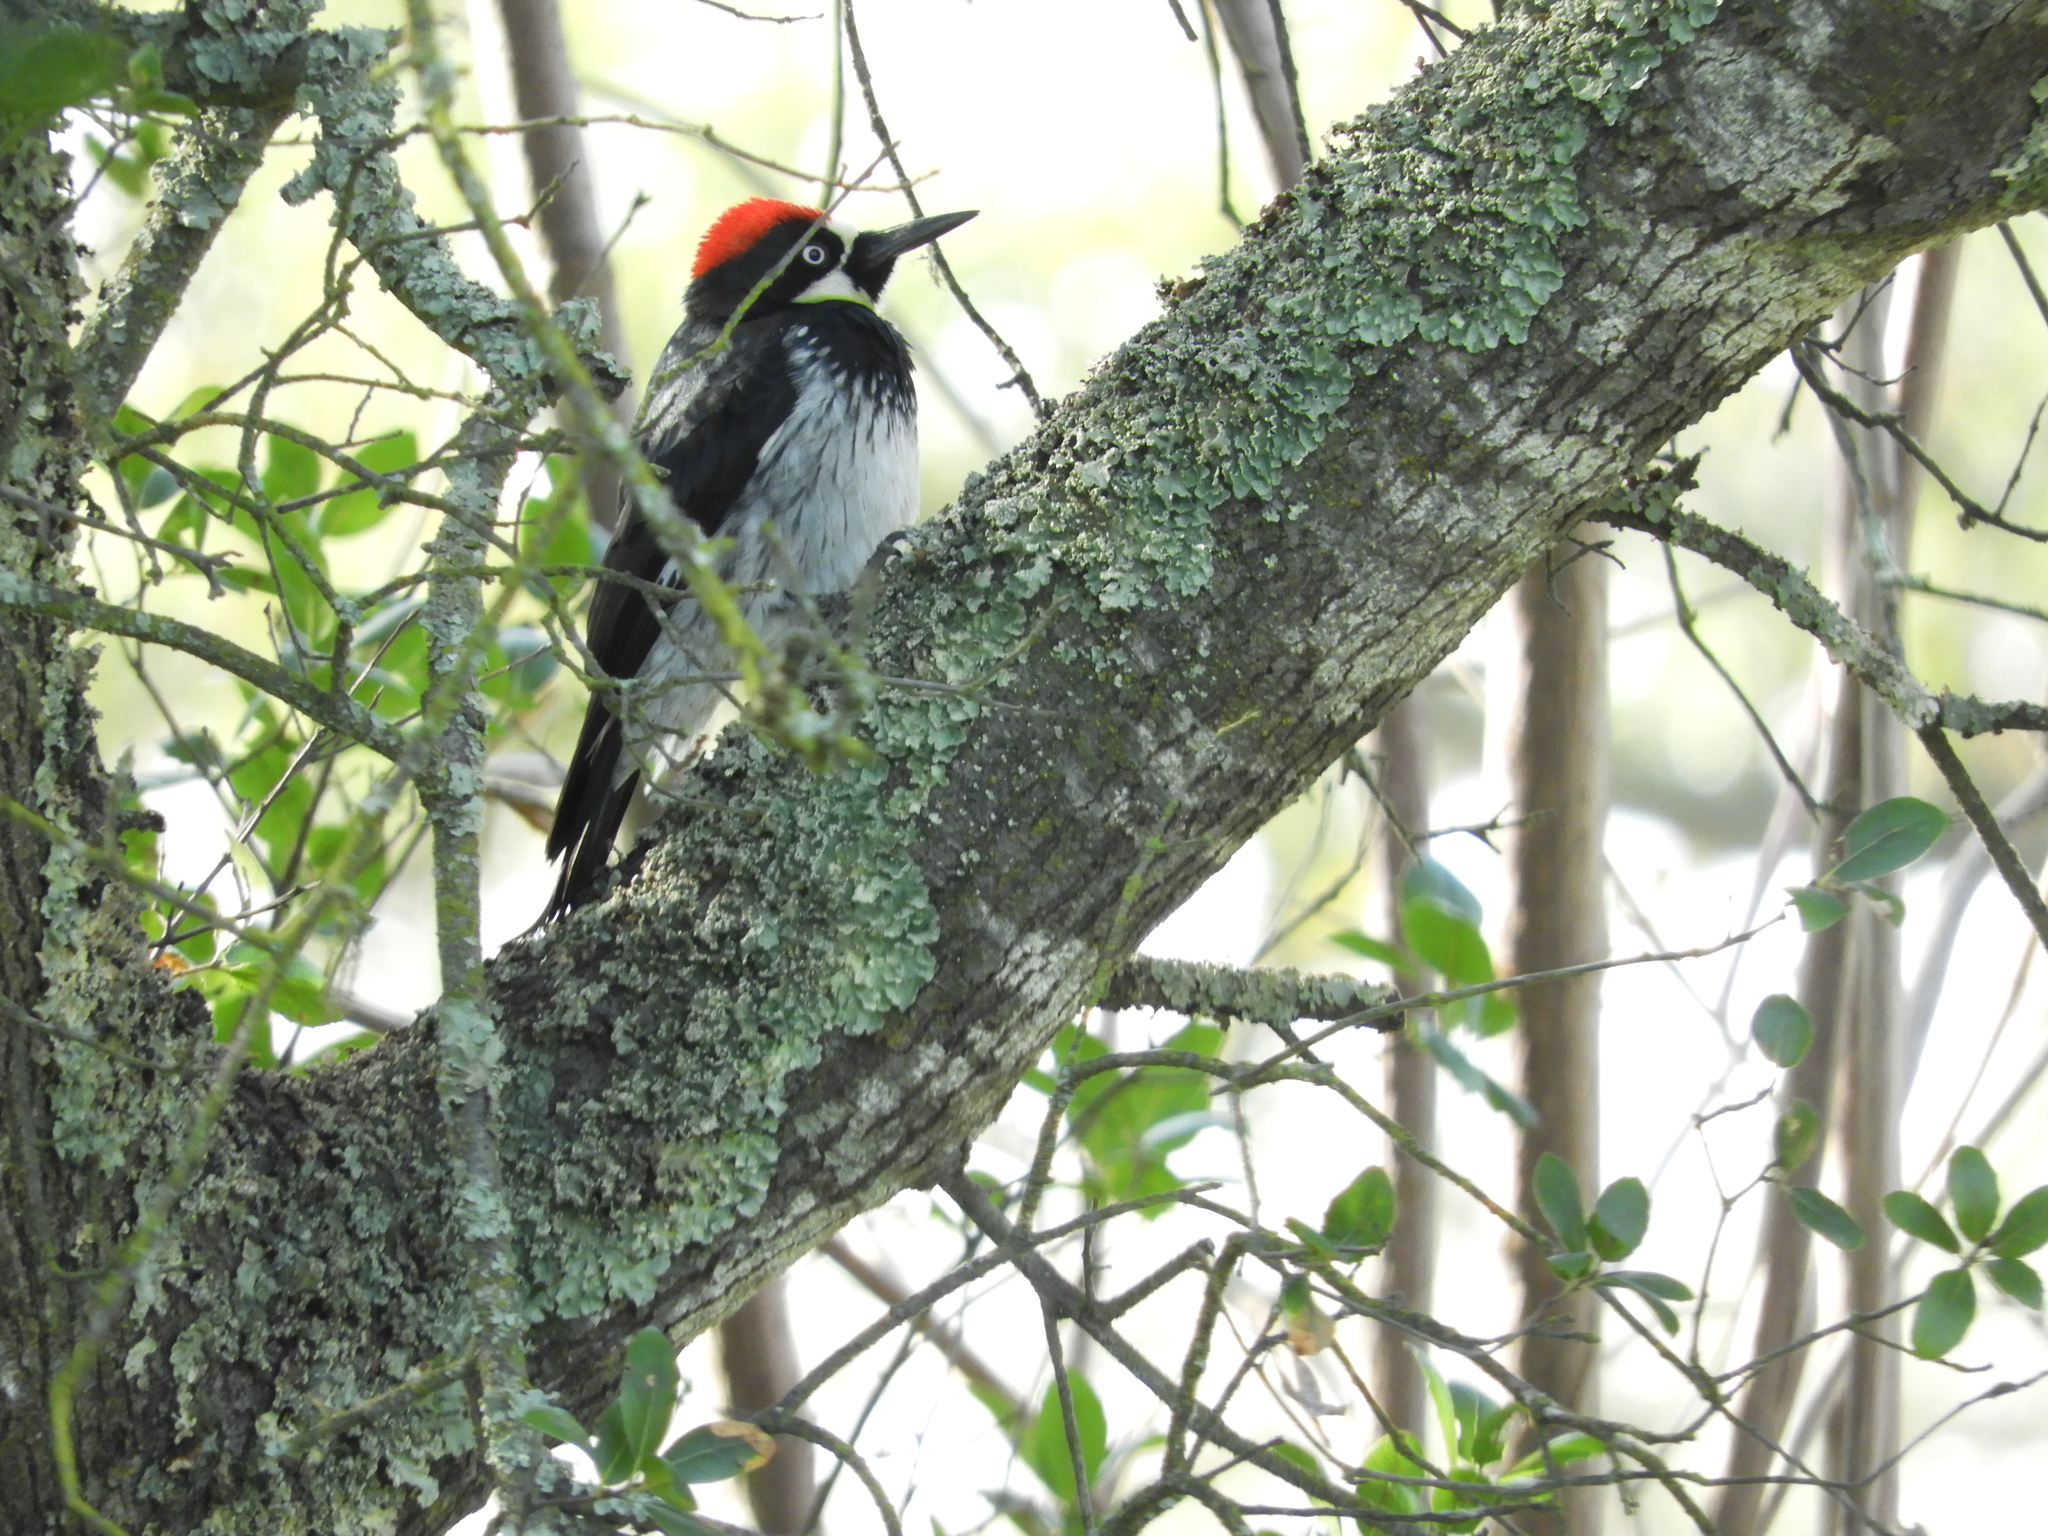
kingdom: Animalia
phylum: Chordata
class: Aves
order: Piciformes
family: Picidae
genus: Melanerpes
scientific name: Melanerpes formicivorus
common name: Acorn woodpecker
